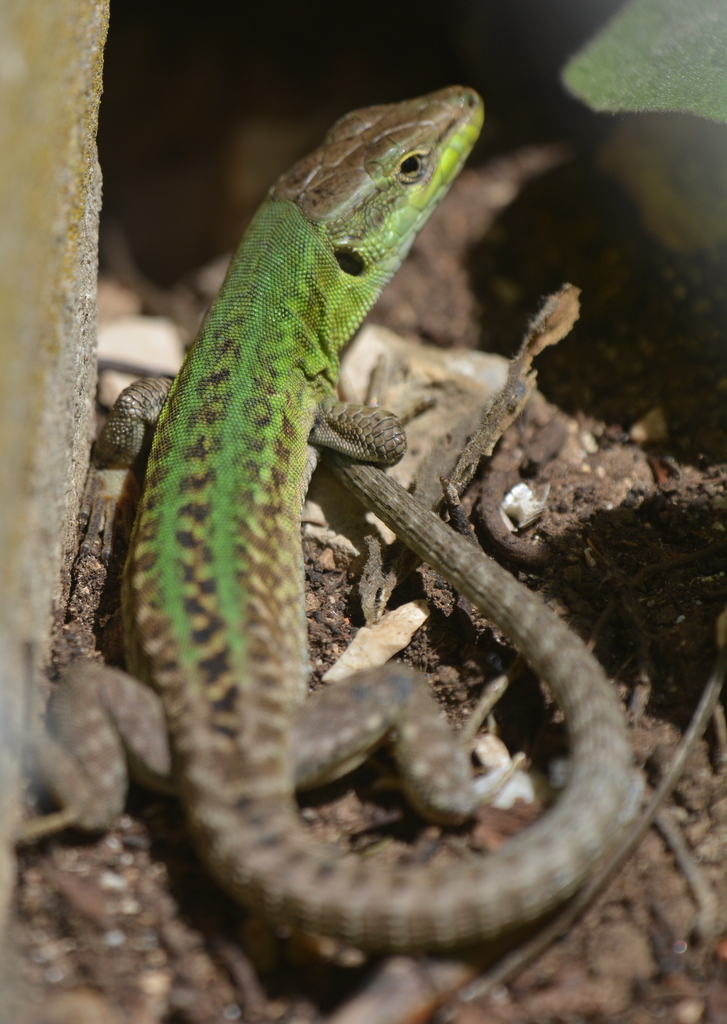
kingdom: Animalia
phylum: Chordata
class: Squamata
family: Lacertidae
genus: Podarcis
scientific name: Podarcis siculus
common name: Italian wall lizard
